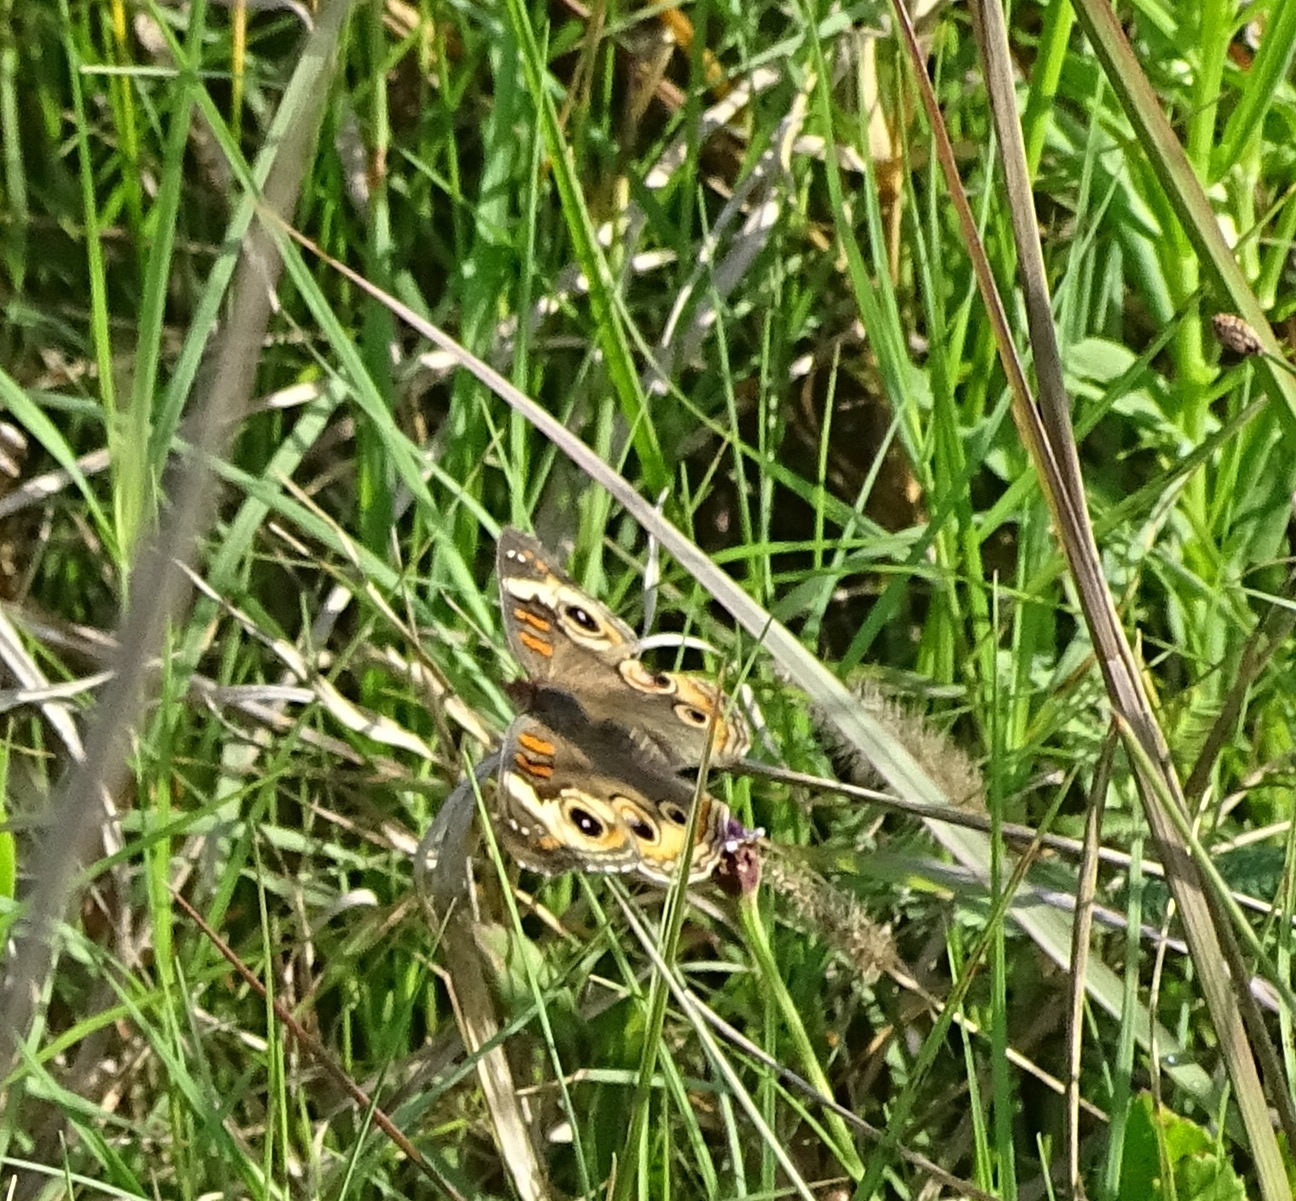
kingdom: Animalia
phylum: Arthropoda
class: Insecta
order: Lepidoptera
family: Nymphalidae
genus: Junonia
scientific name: Junonia coenia
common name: Common buckeye
